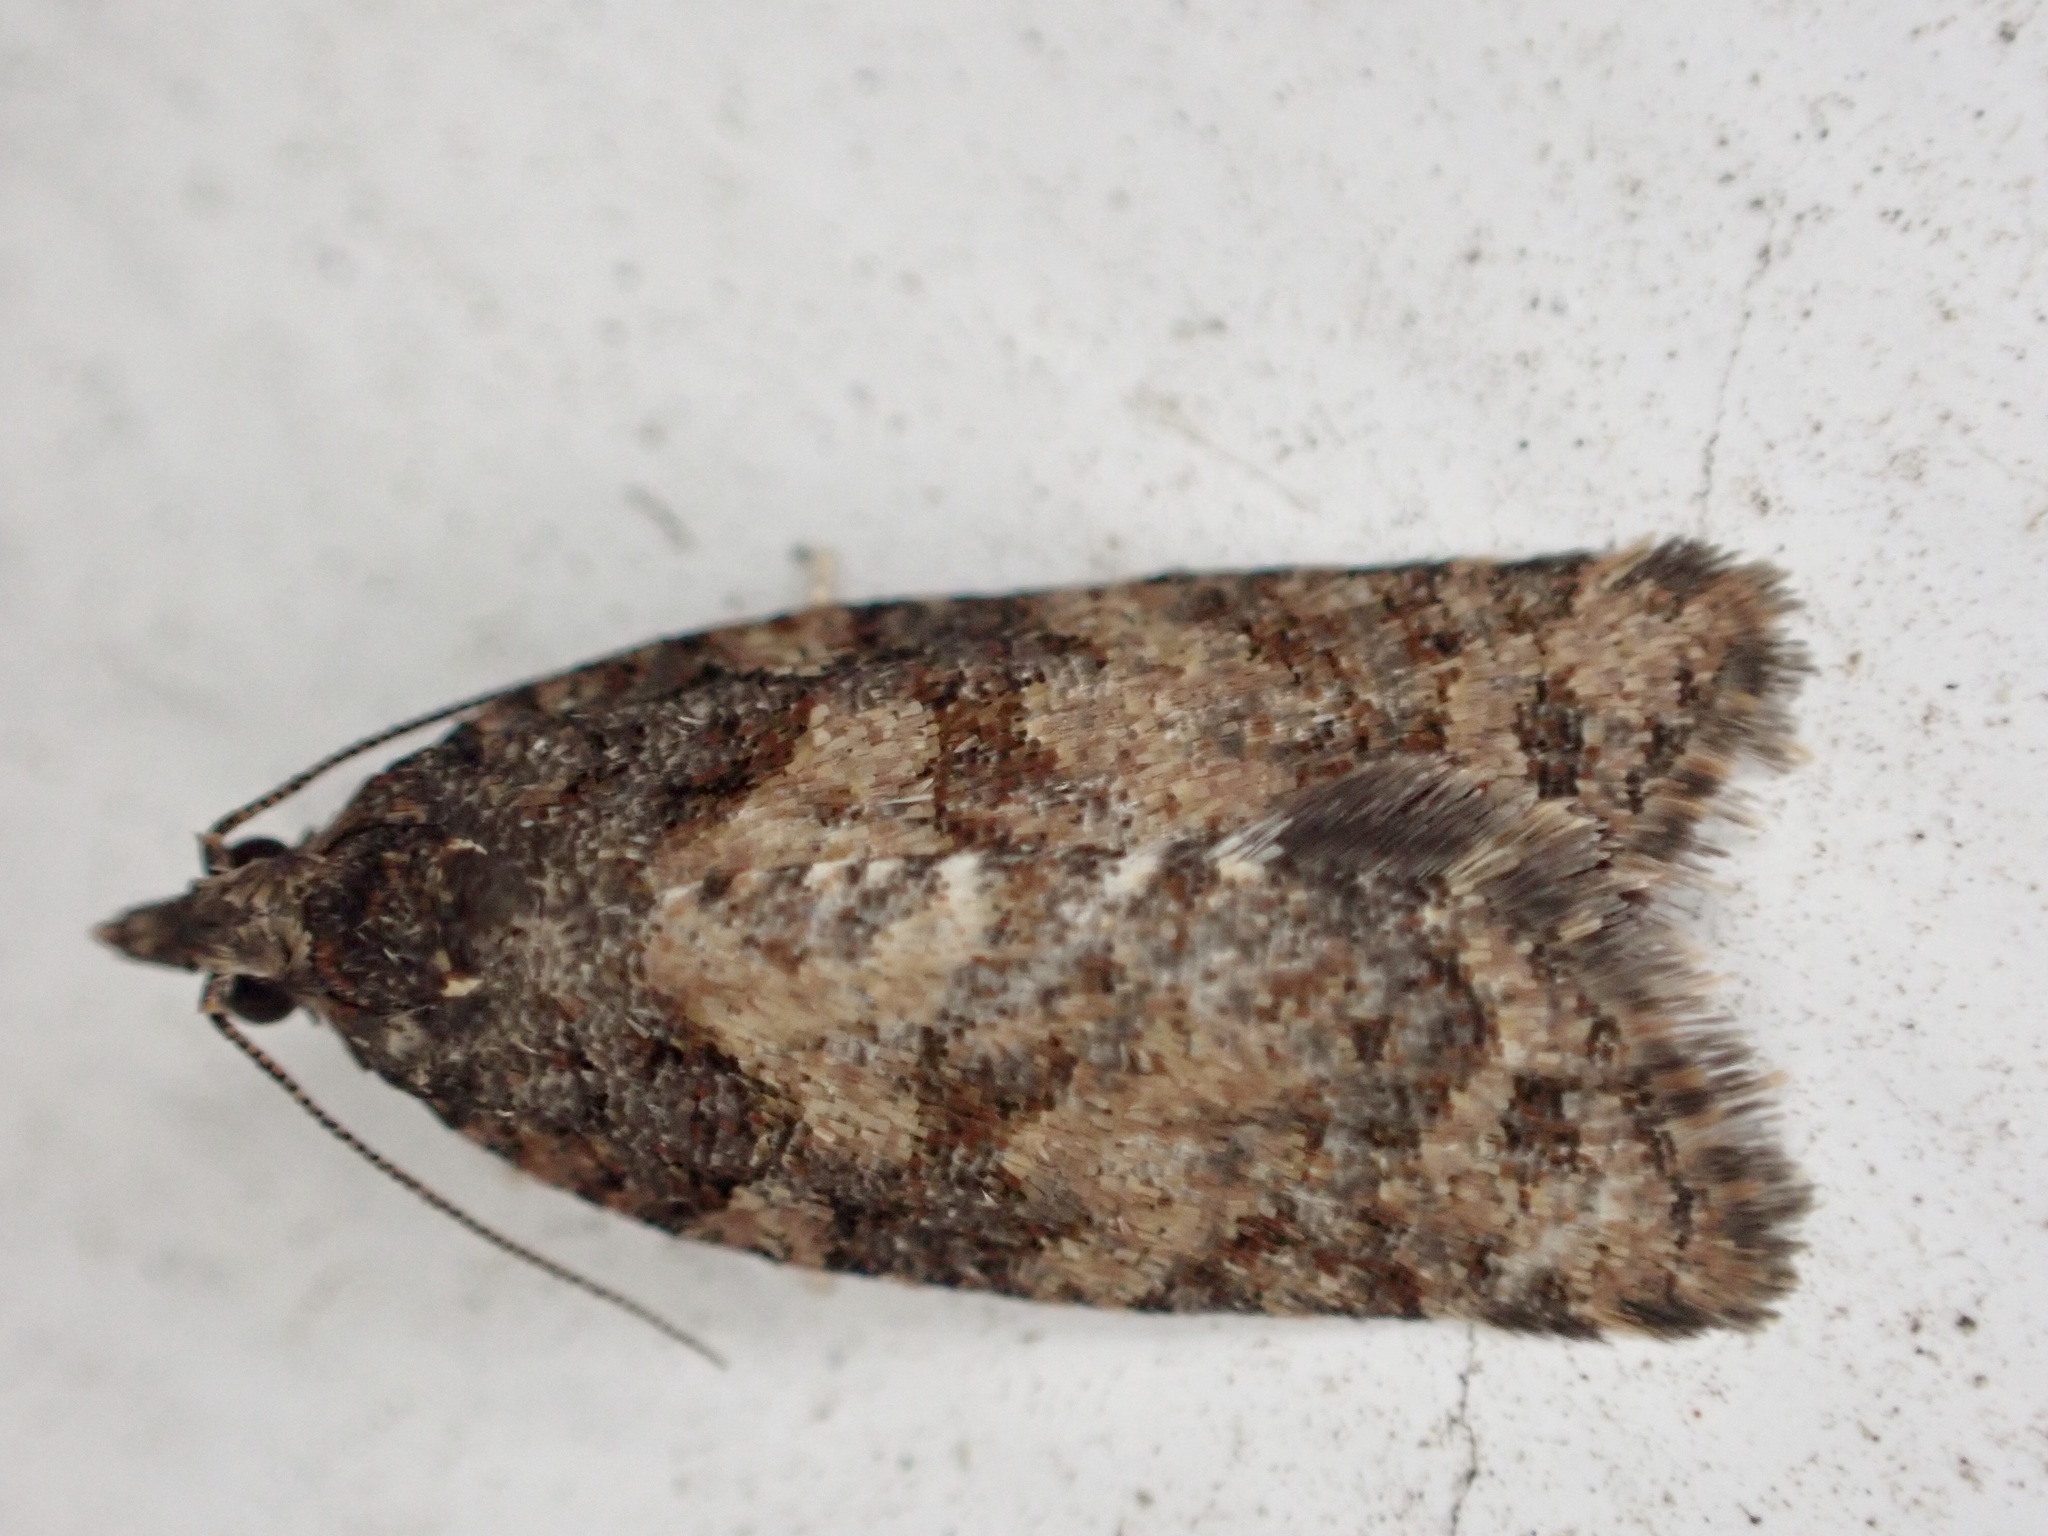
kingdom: Animalia
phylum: Arthropoda
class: Insecta
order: Lepidoptera
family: Tortricidae
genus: Capua
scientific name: Capua intractana
